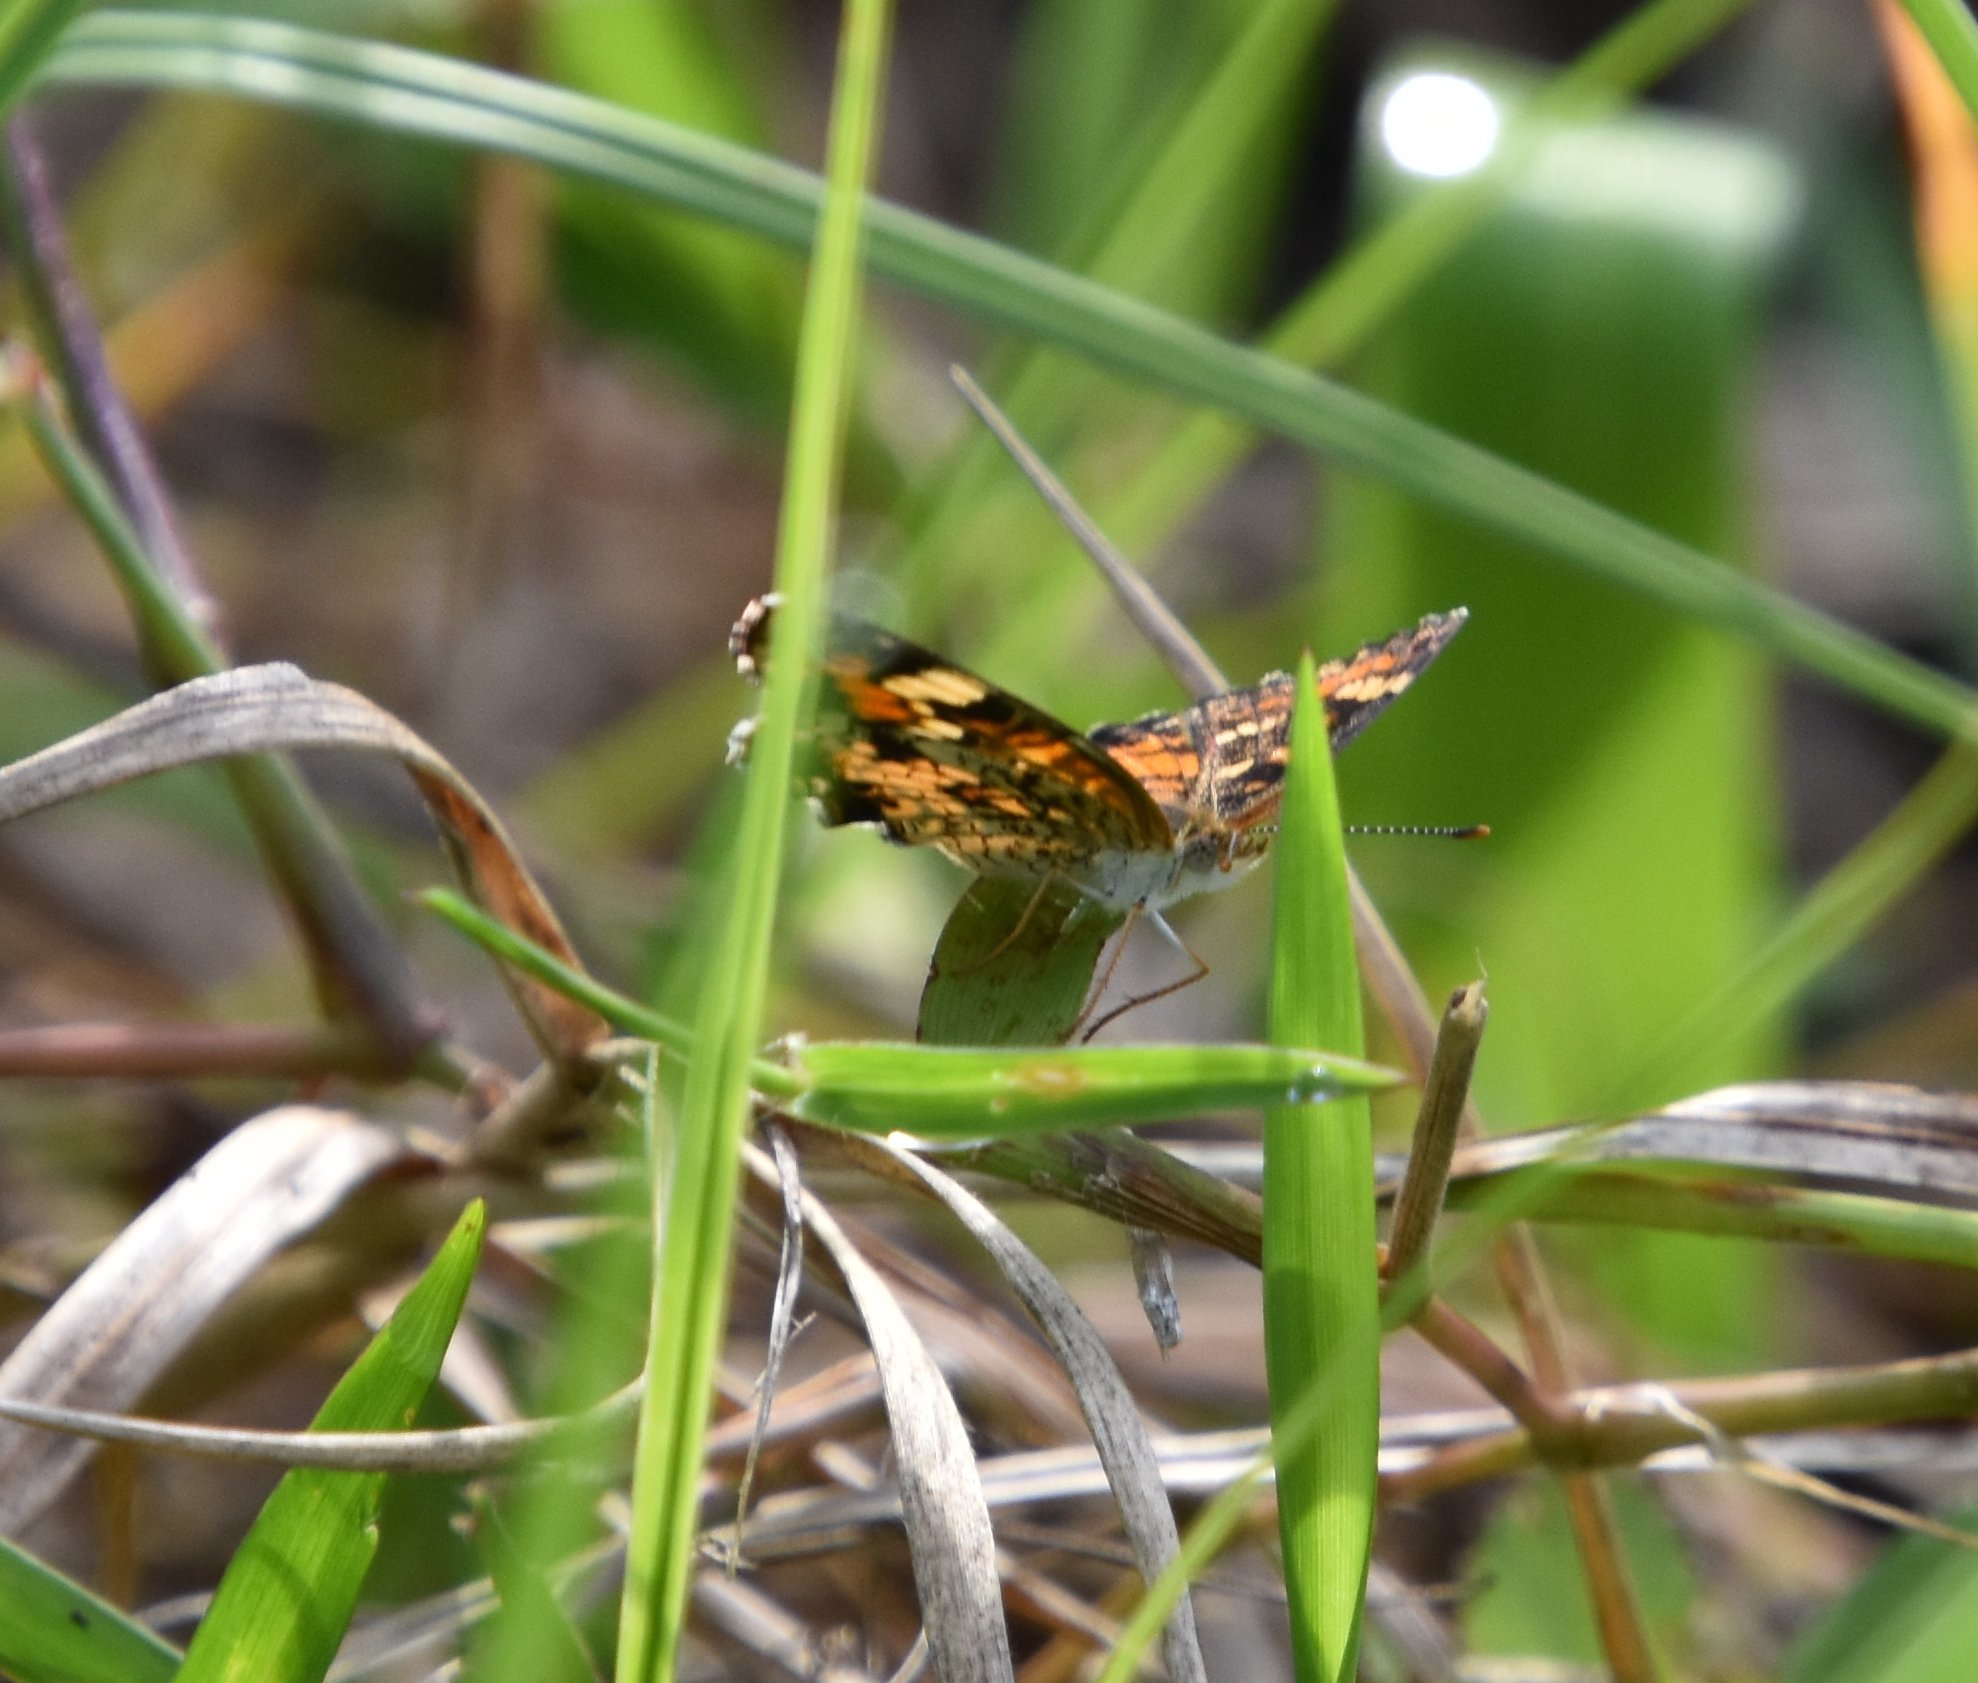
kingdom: Animalia
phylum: Arthropoda
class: Insecta
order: Lepidoptera
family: Nymphalidae
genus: Phyciodes
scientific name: Phyciodes phaon
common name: Phaon crescent
